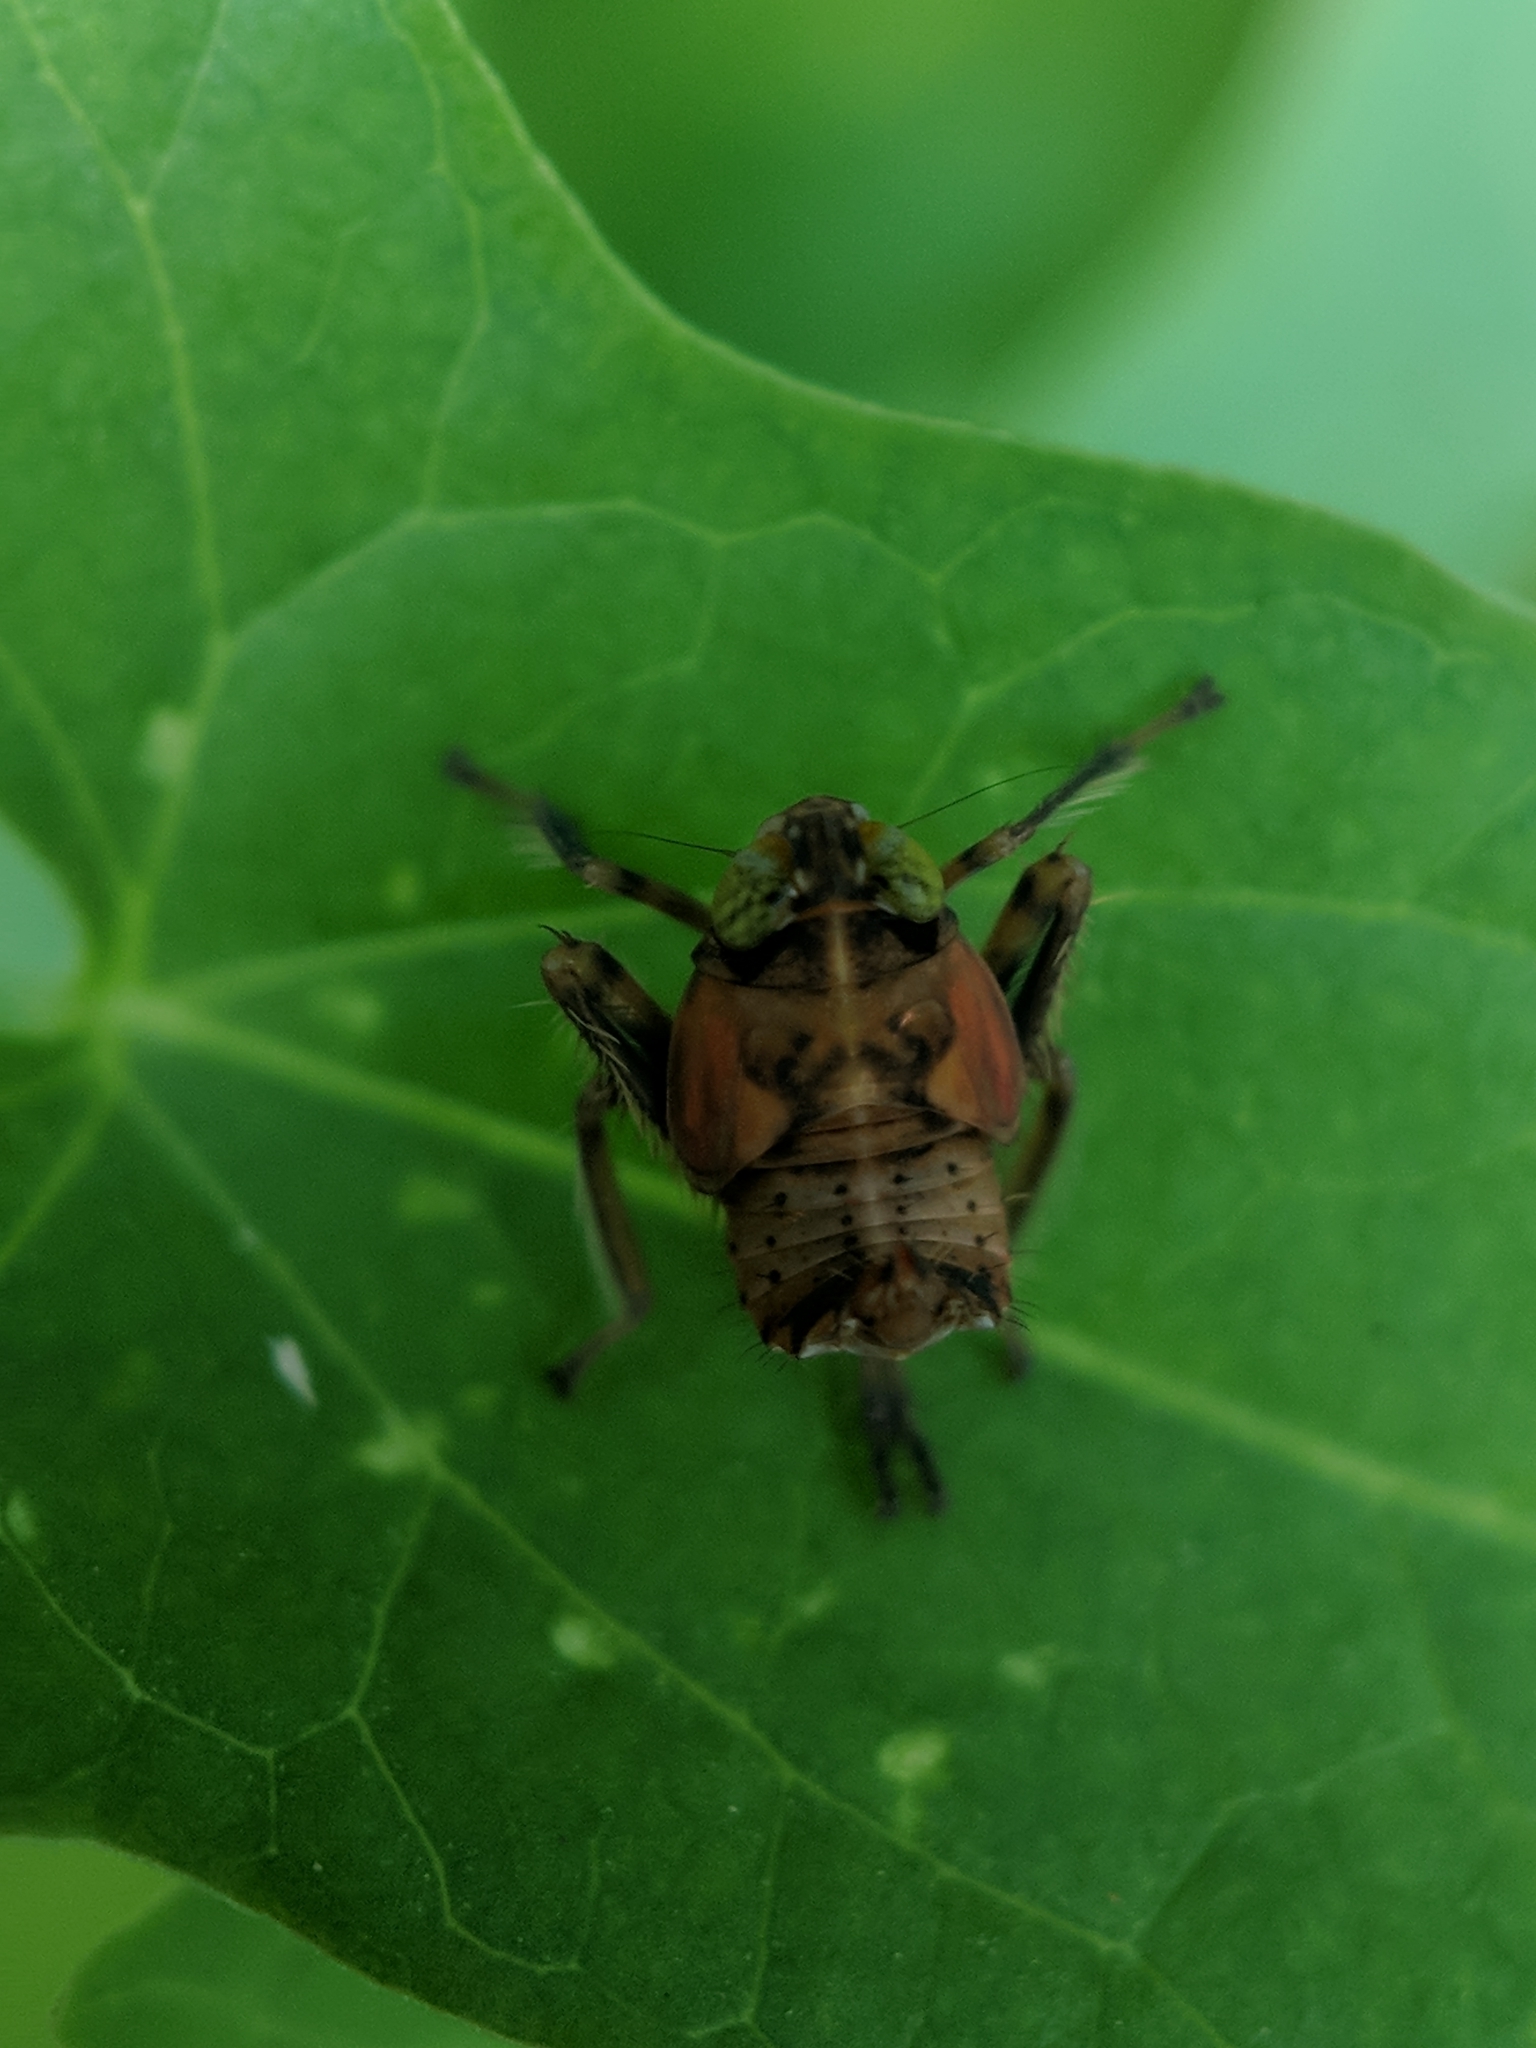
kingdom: Animalia
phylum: Arthropoda
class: Insecta
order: Hemiptera
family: Cicadellidae
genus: Jikradia
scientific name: Jikradia olitoria
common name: Coppery leafhopper
